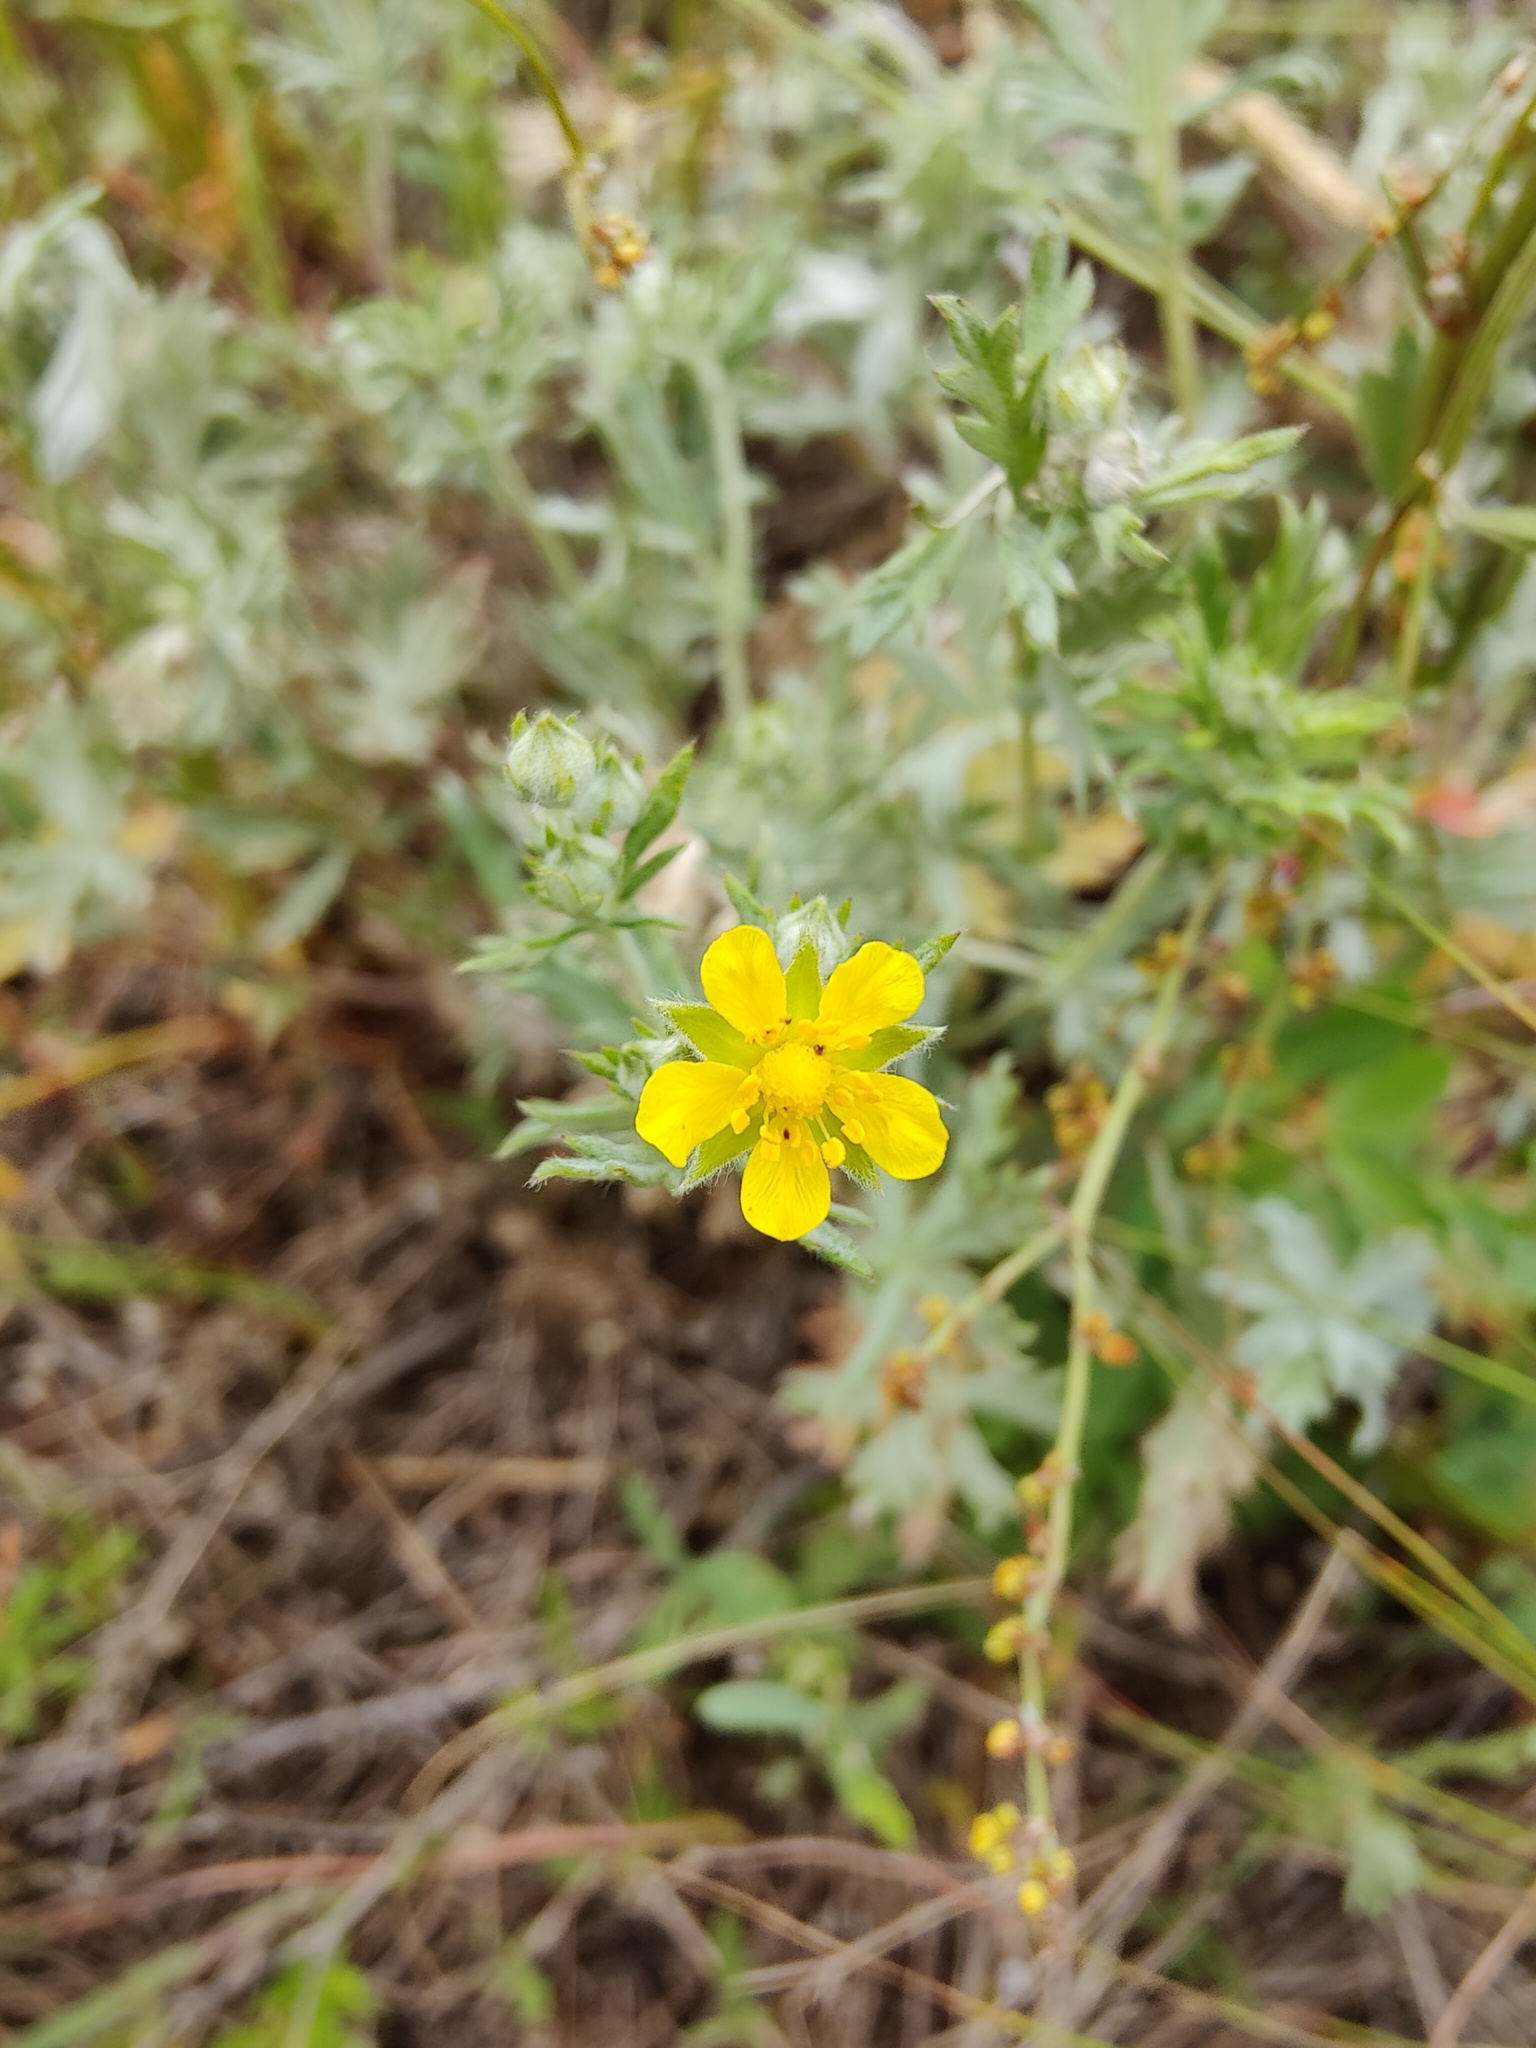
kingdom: Plantae
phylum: Tracheophyta
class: Magnoliopsida
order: Rosales
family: Rosaceae
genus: Potentilla
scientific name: Potentilla argentea
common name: Hoary cinquefoil
